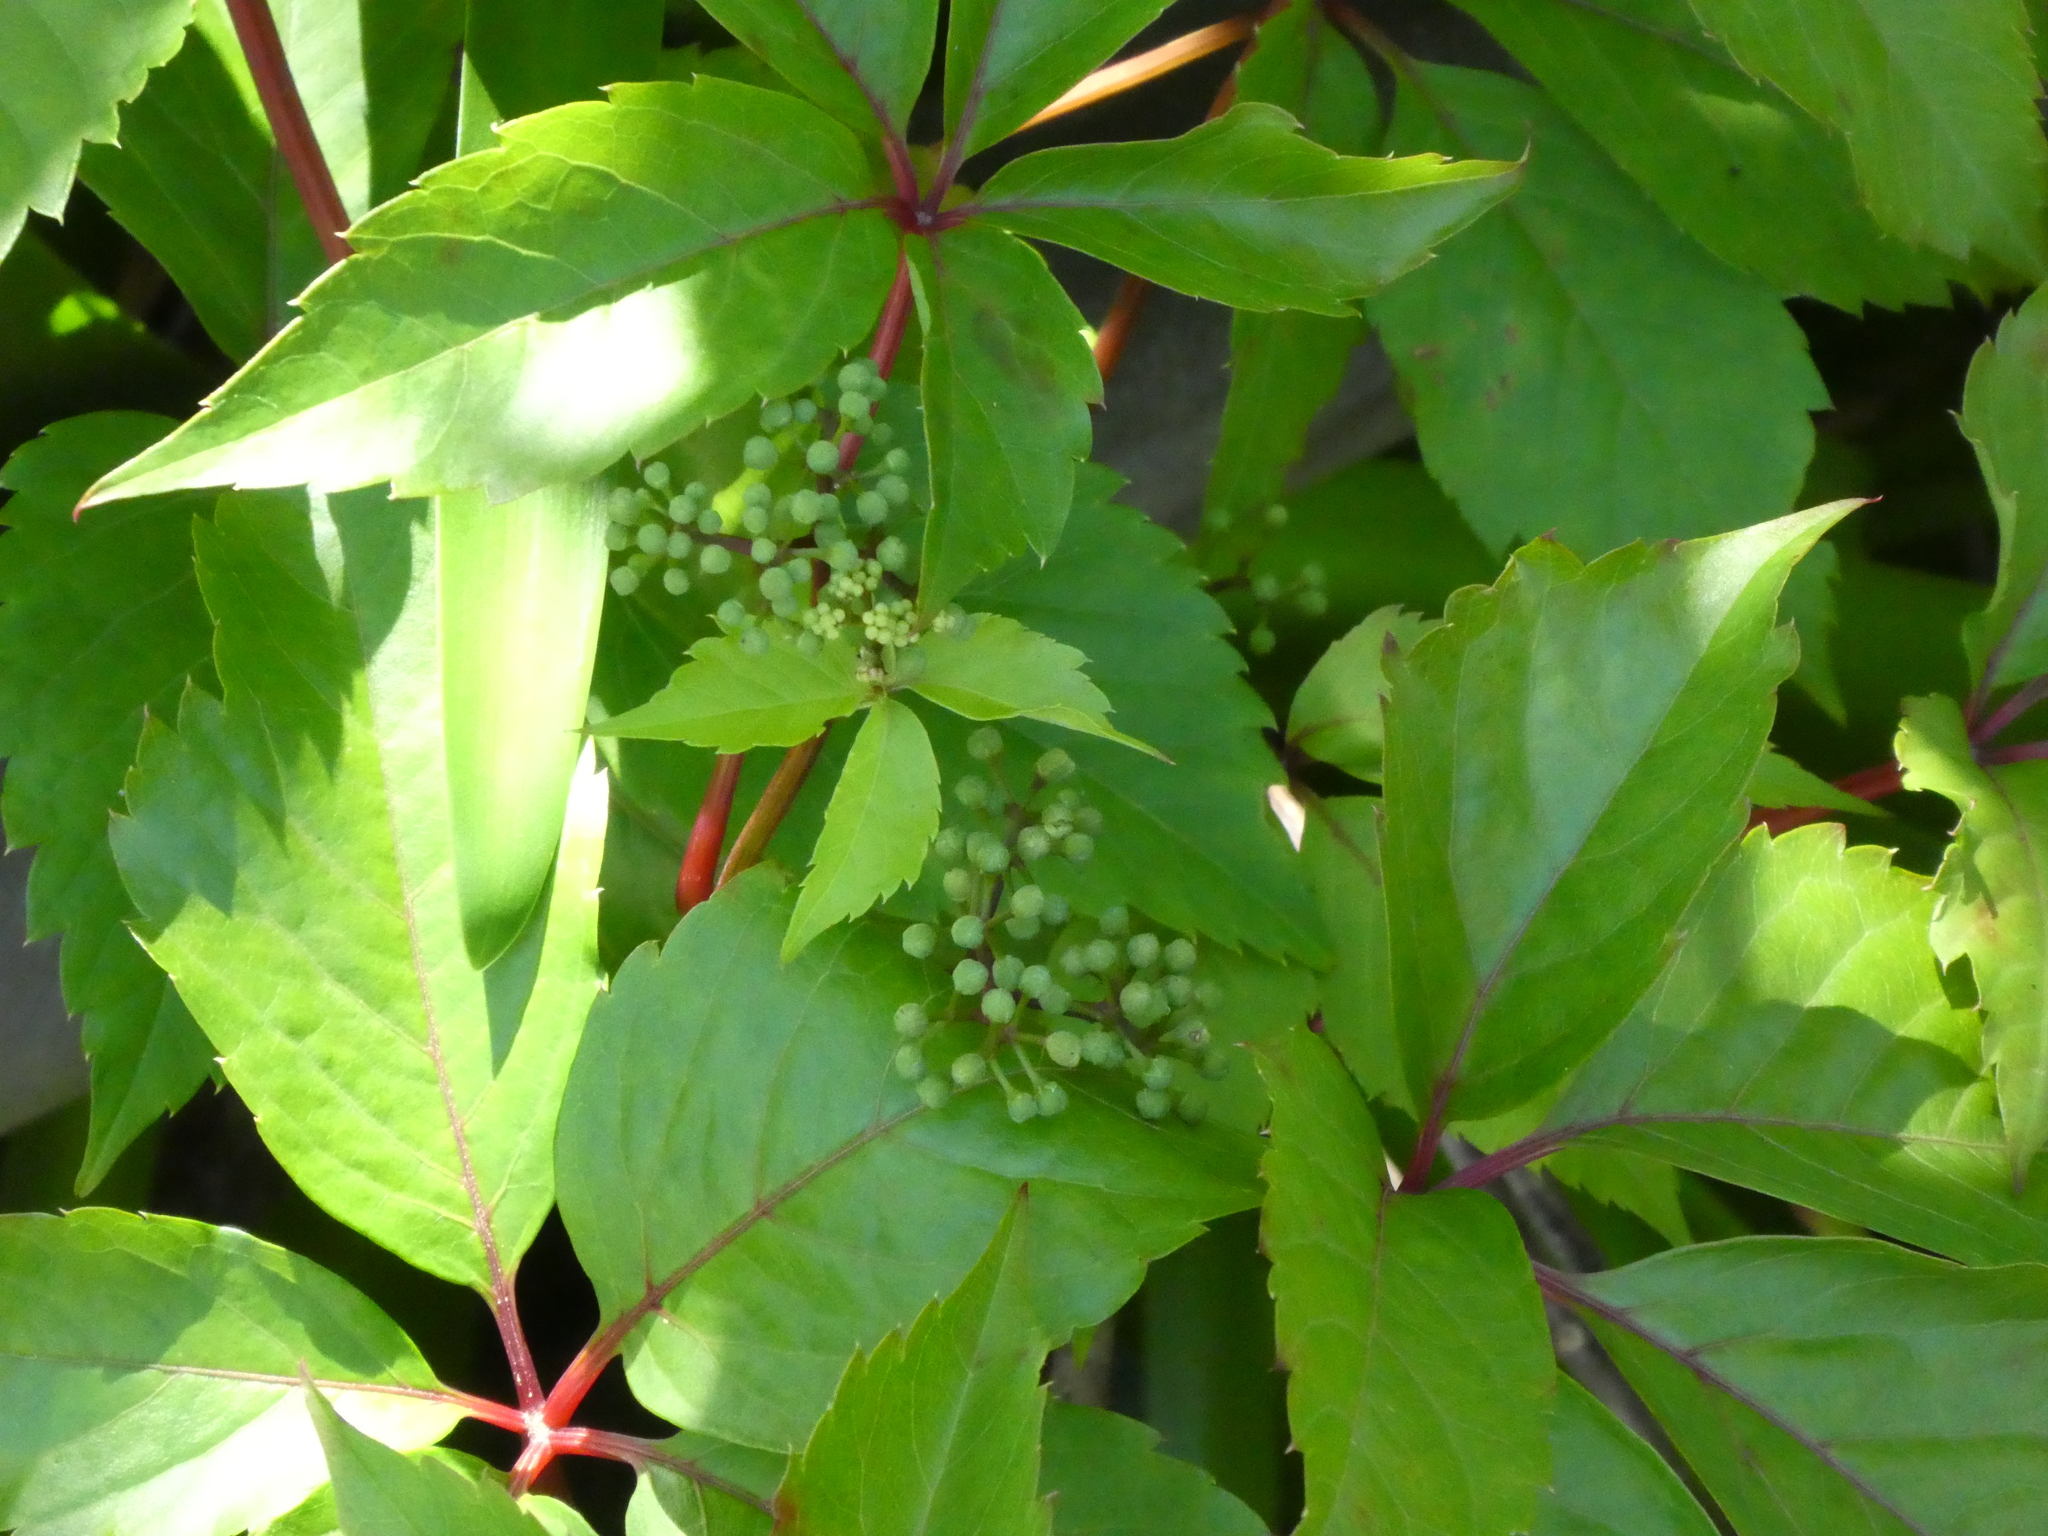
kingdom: Plantae
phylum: Tracheophyta
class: Magnoliopsida
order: Vitales
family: Vitaceae
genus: Parthenocissus
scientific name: Parthenocissus quinquefolia
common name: Virginia-creeper
